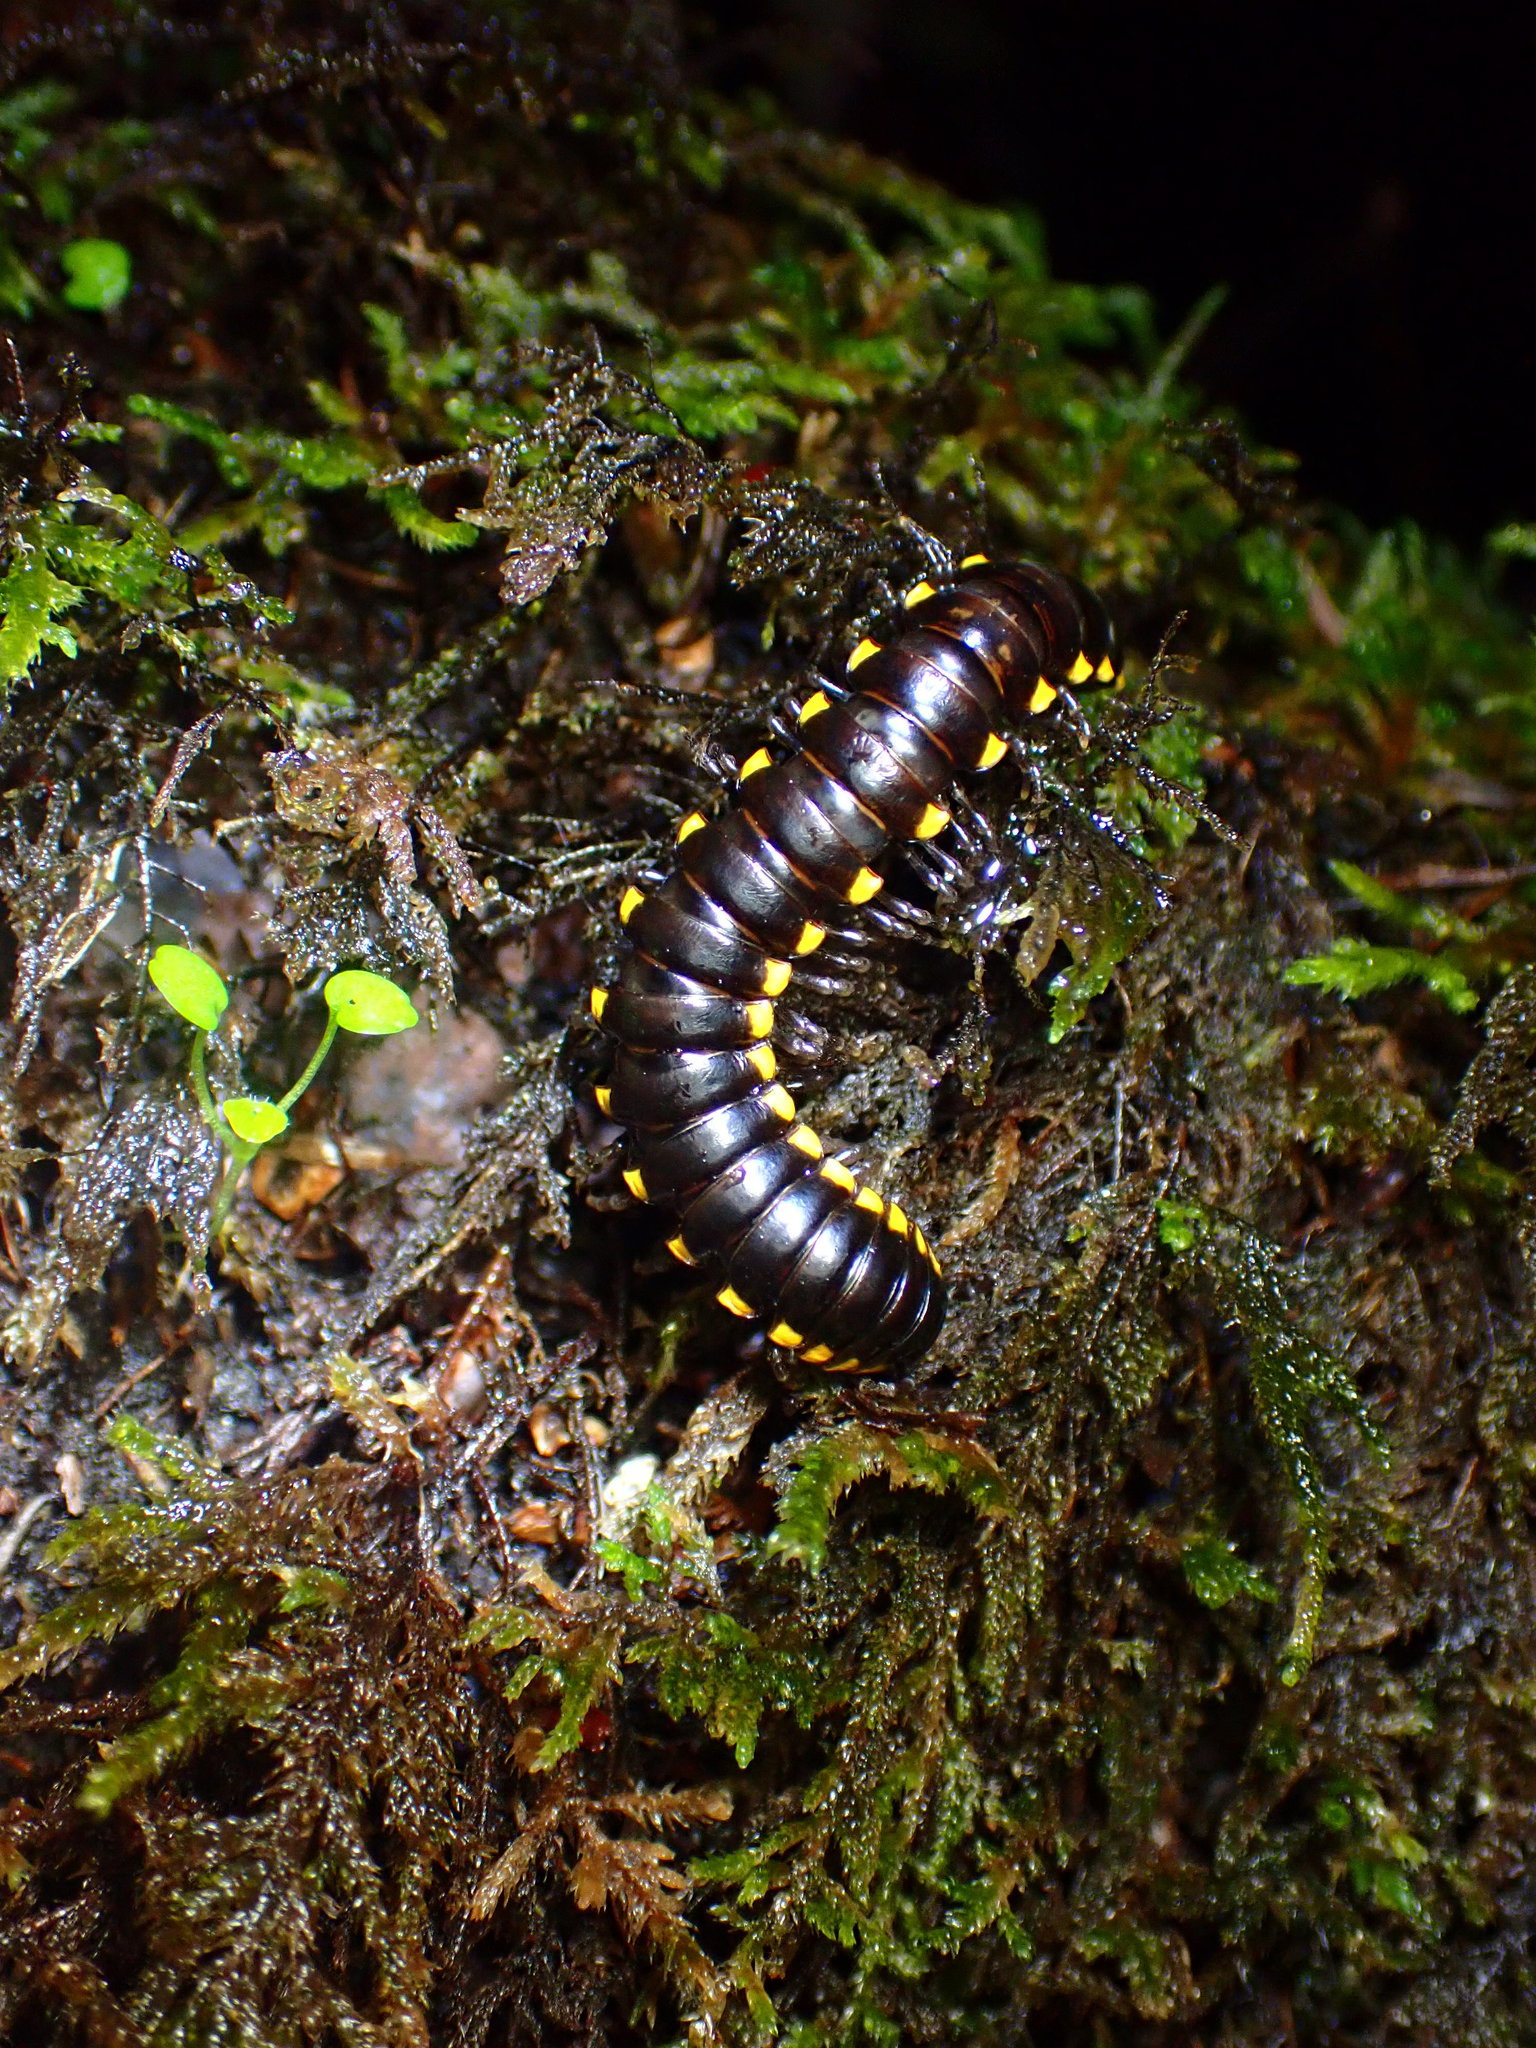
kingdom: Animalia
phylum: Arthropoda
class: Diplopoda
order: Polydesmida
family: Xystodesmidae
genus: Harpaphe
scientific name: Harpaphe haydeniana
